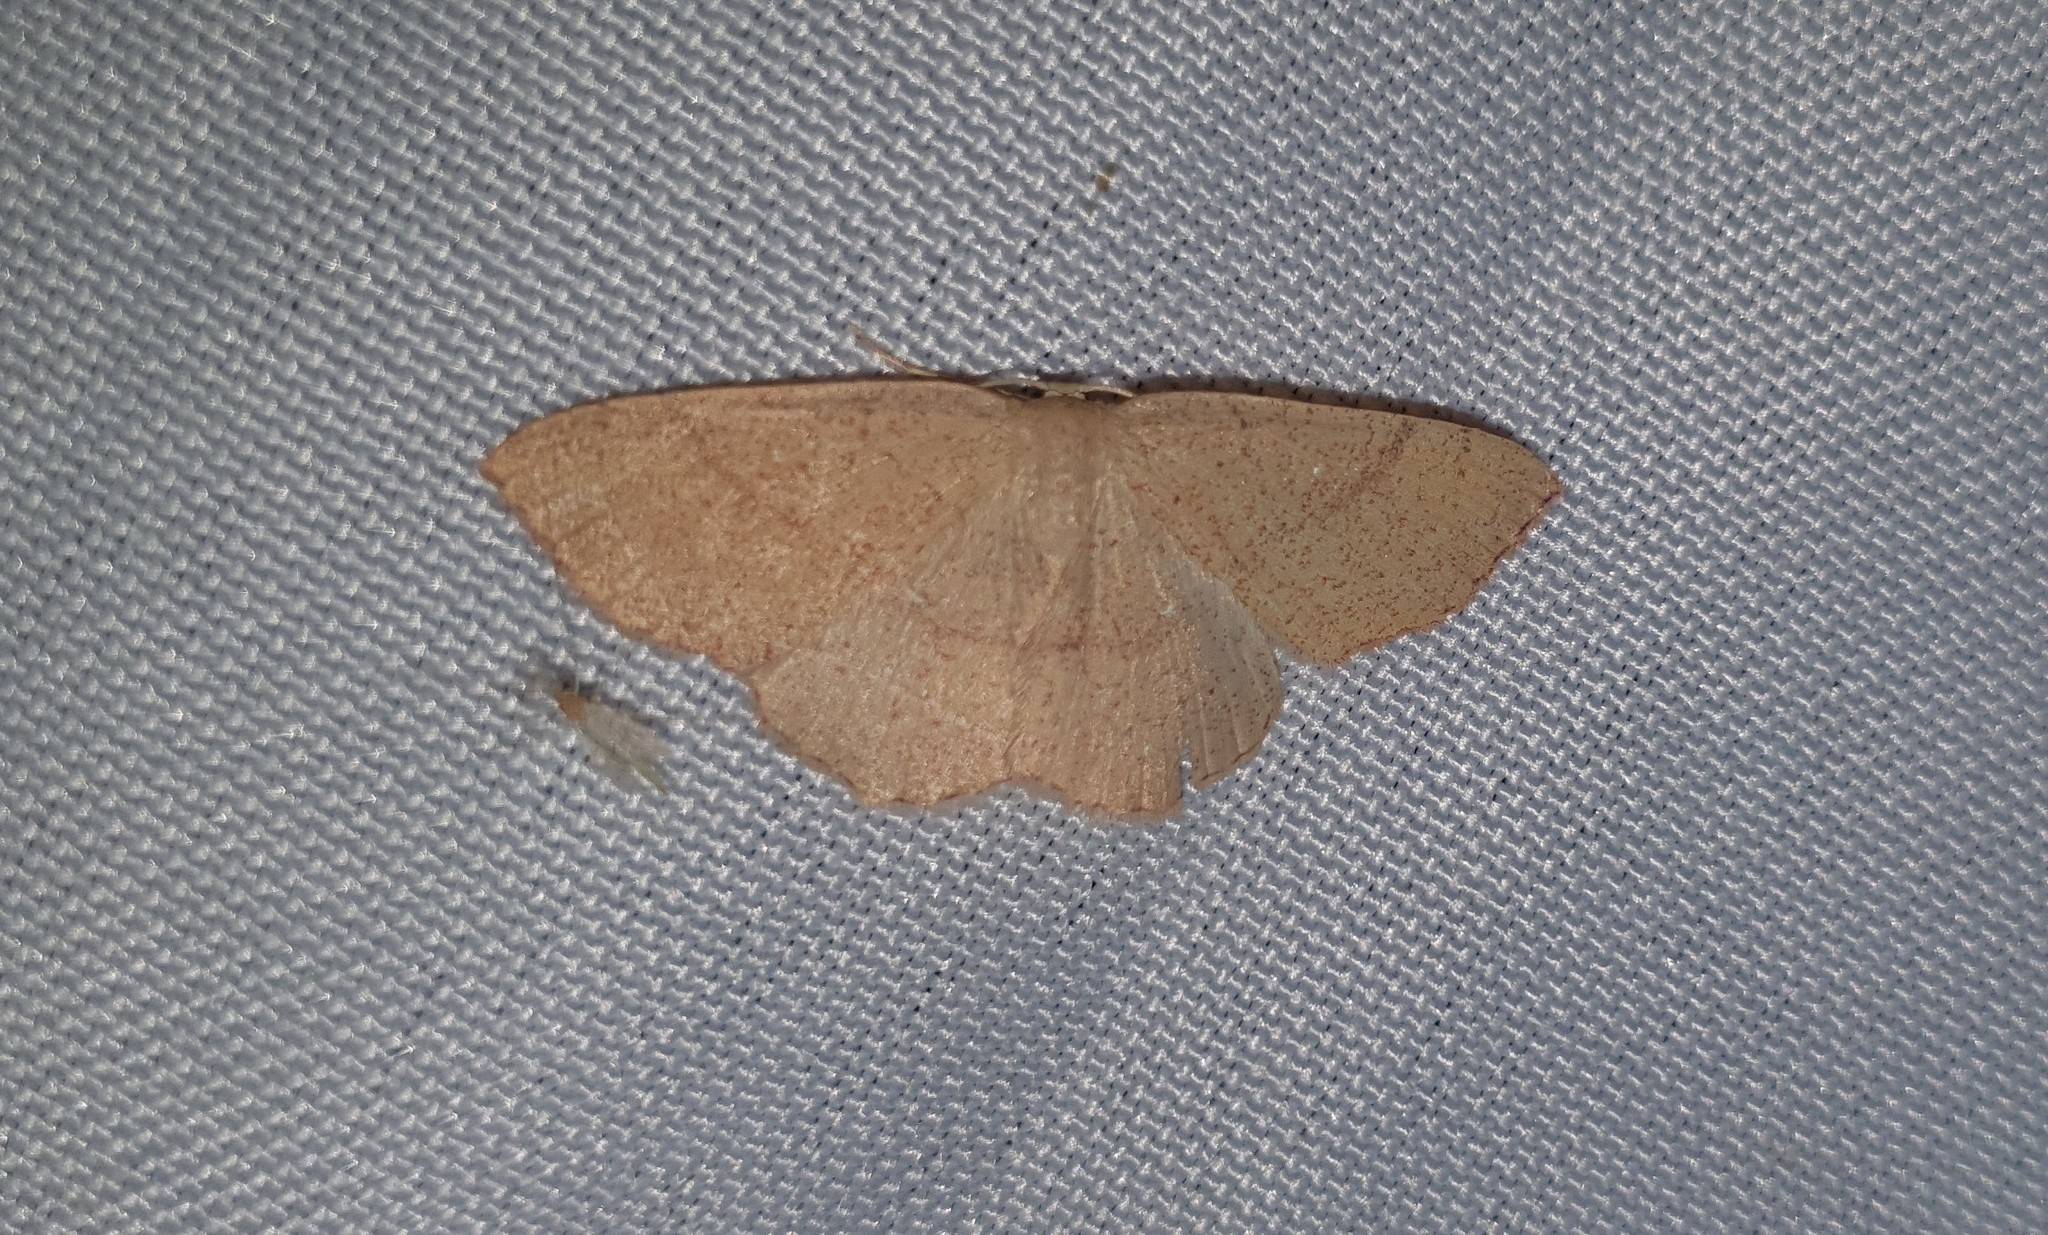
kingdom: Animalia
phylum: Arthropoda
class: Insecta
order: Lepidoptera
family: Geometridae
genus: Cyclophora
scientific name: Cyclophora linearia
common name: Clay triple-lines
